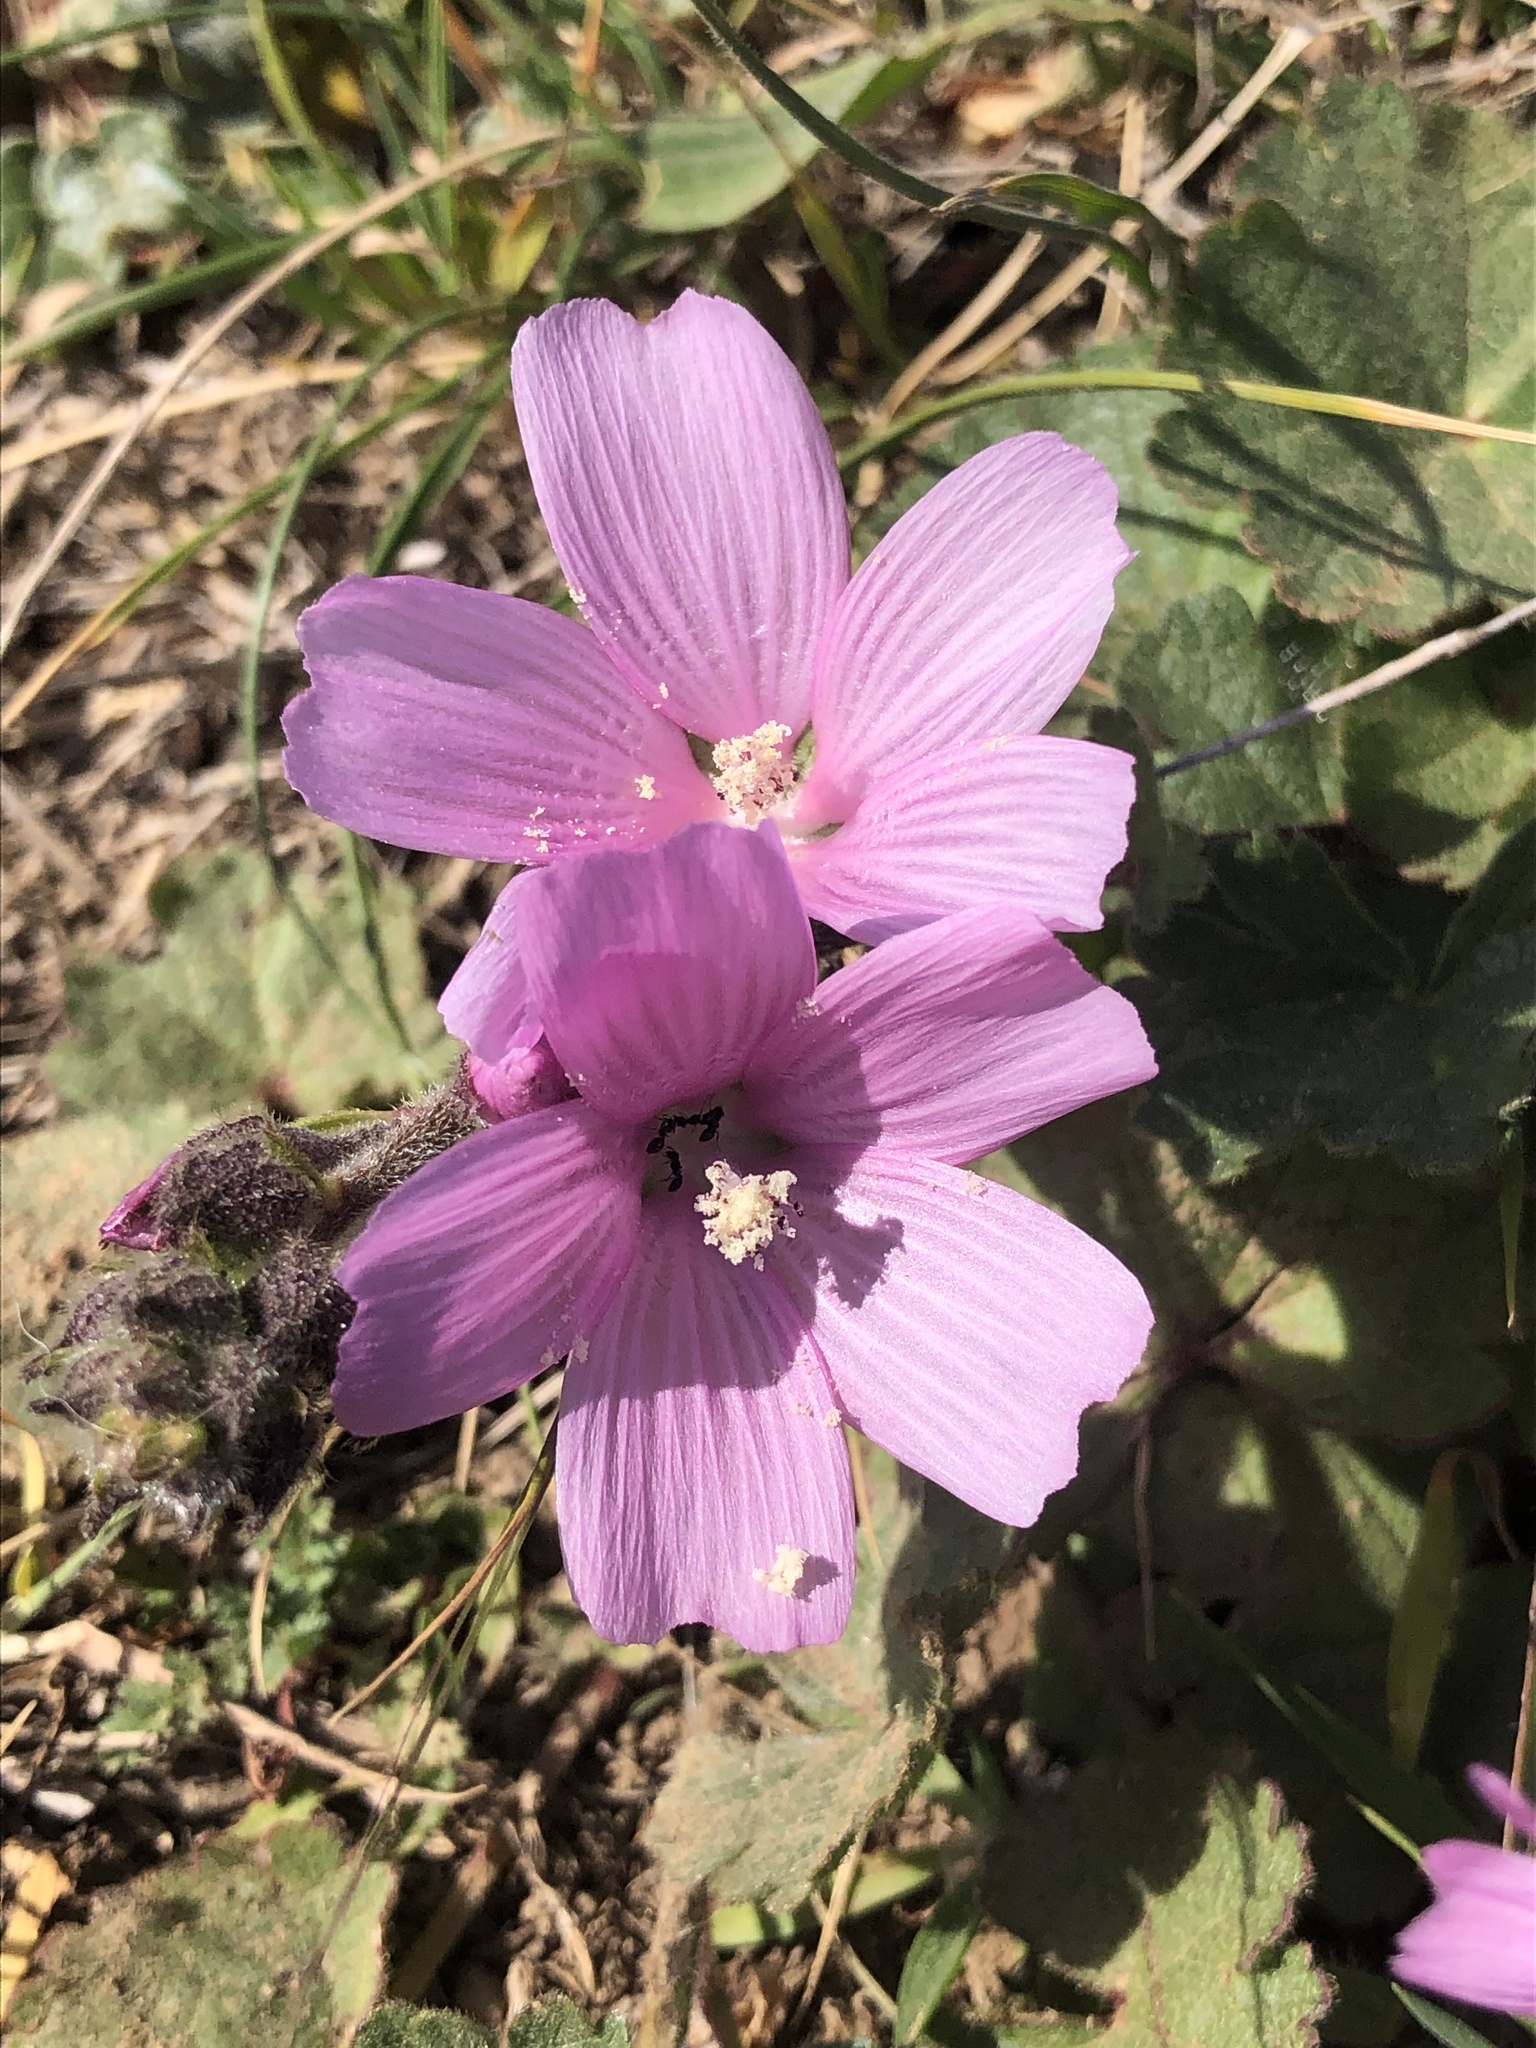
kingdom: Plantae
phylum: Tracheophyta
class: Magnoliopsida
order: Malvales
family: Malvaceae
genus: Sidalcea
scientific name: Sidalcea malviflora
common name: Greek mallow
